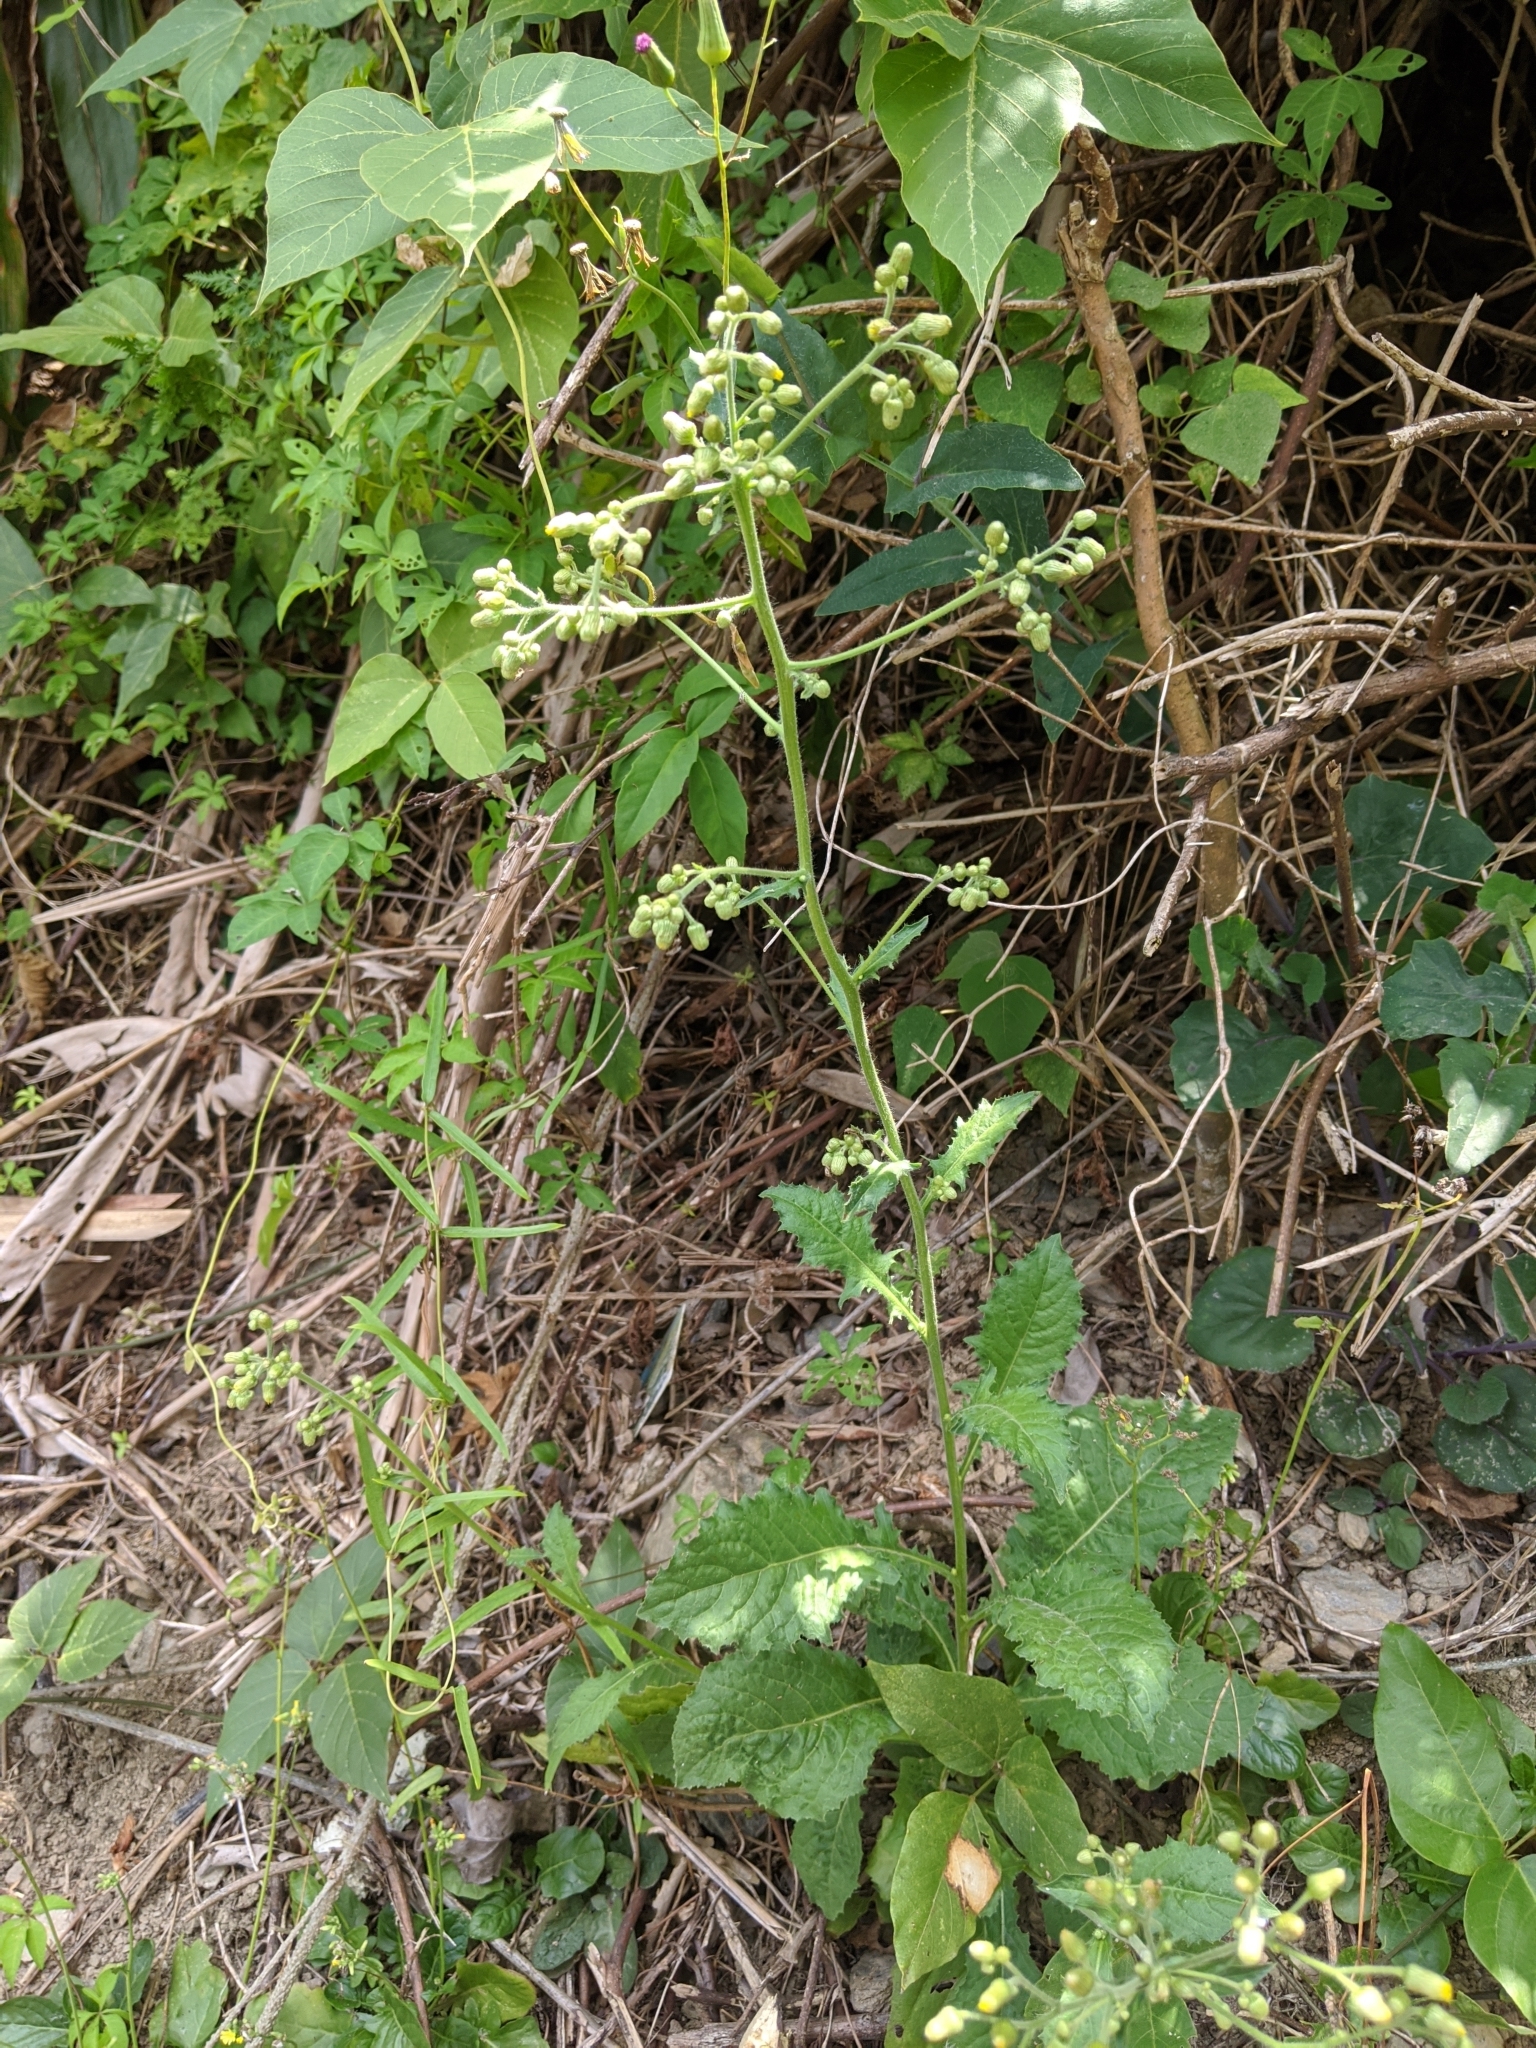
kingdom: Plantae
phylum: Tracheophyta
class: Magnoliopsida
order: Asterales
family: Asteraceae
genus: Blumea
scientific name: Blumea sinuata
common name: Cutleaf false oxtongue
